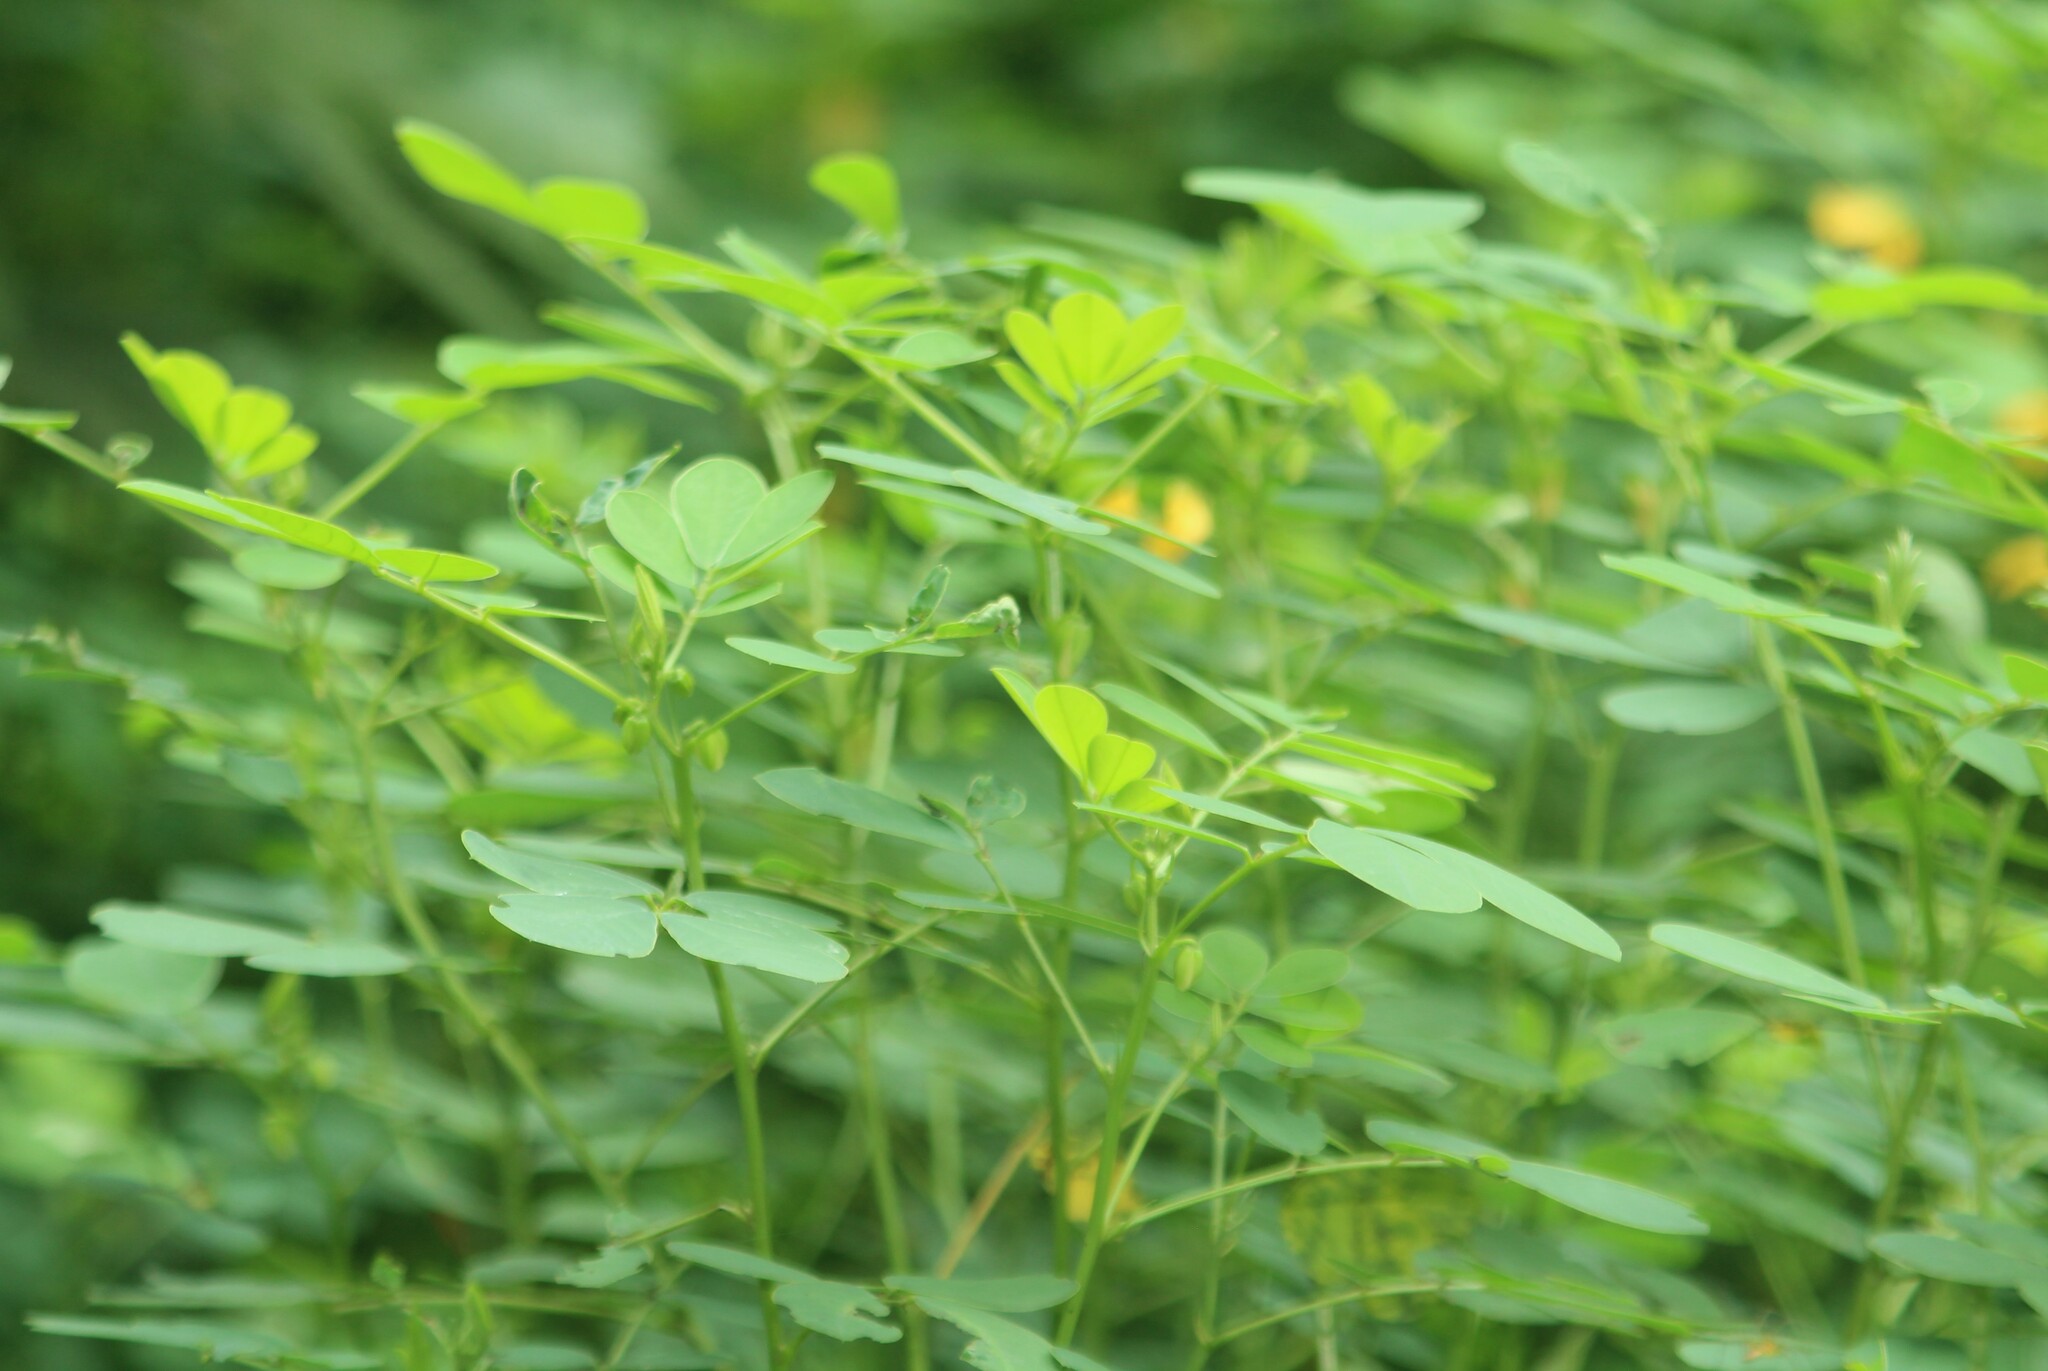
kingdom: Plantae
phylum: Tracheophyta
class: Magnoliopsida
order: Fabales
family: Fabaceae
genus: Senna
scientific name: Senna tora
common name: Sickle senna
